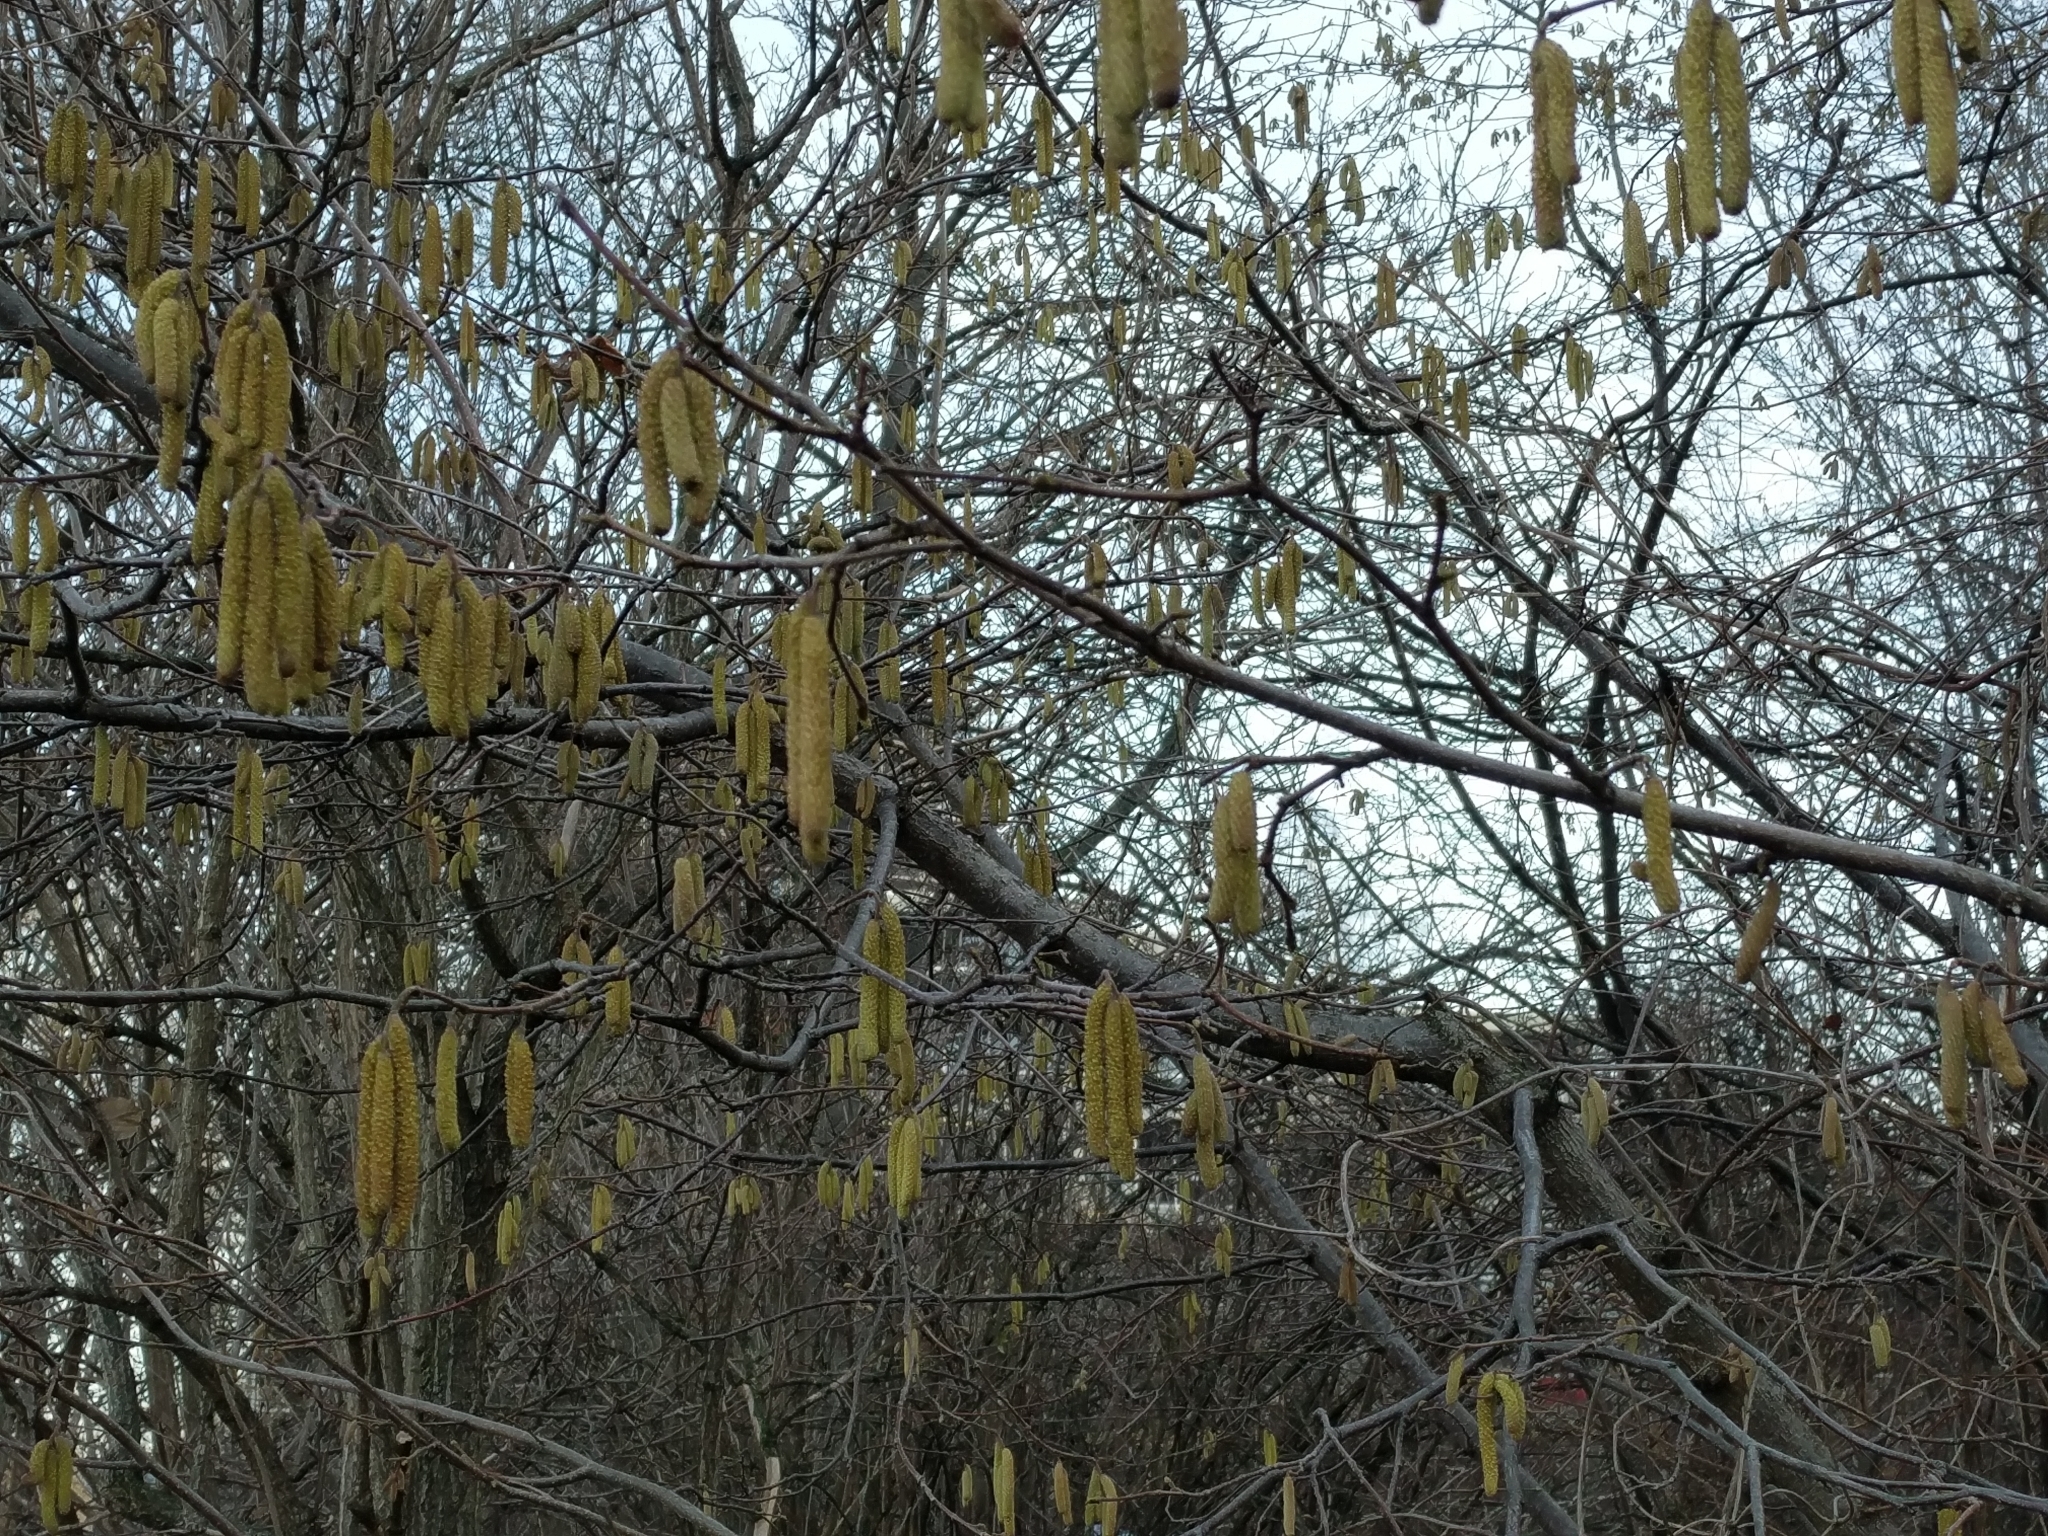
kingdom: Plantae
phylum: Tracheophyta
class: Magnoliopsida
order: Fagales
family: Betulaceae
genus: Corylus
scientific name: Corylus avellana
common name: European hazel
